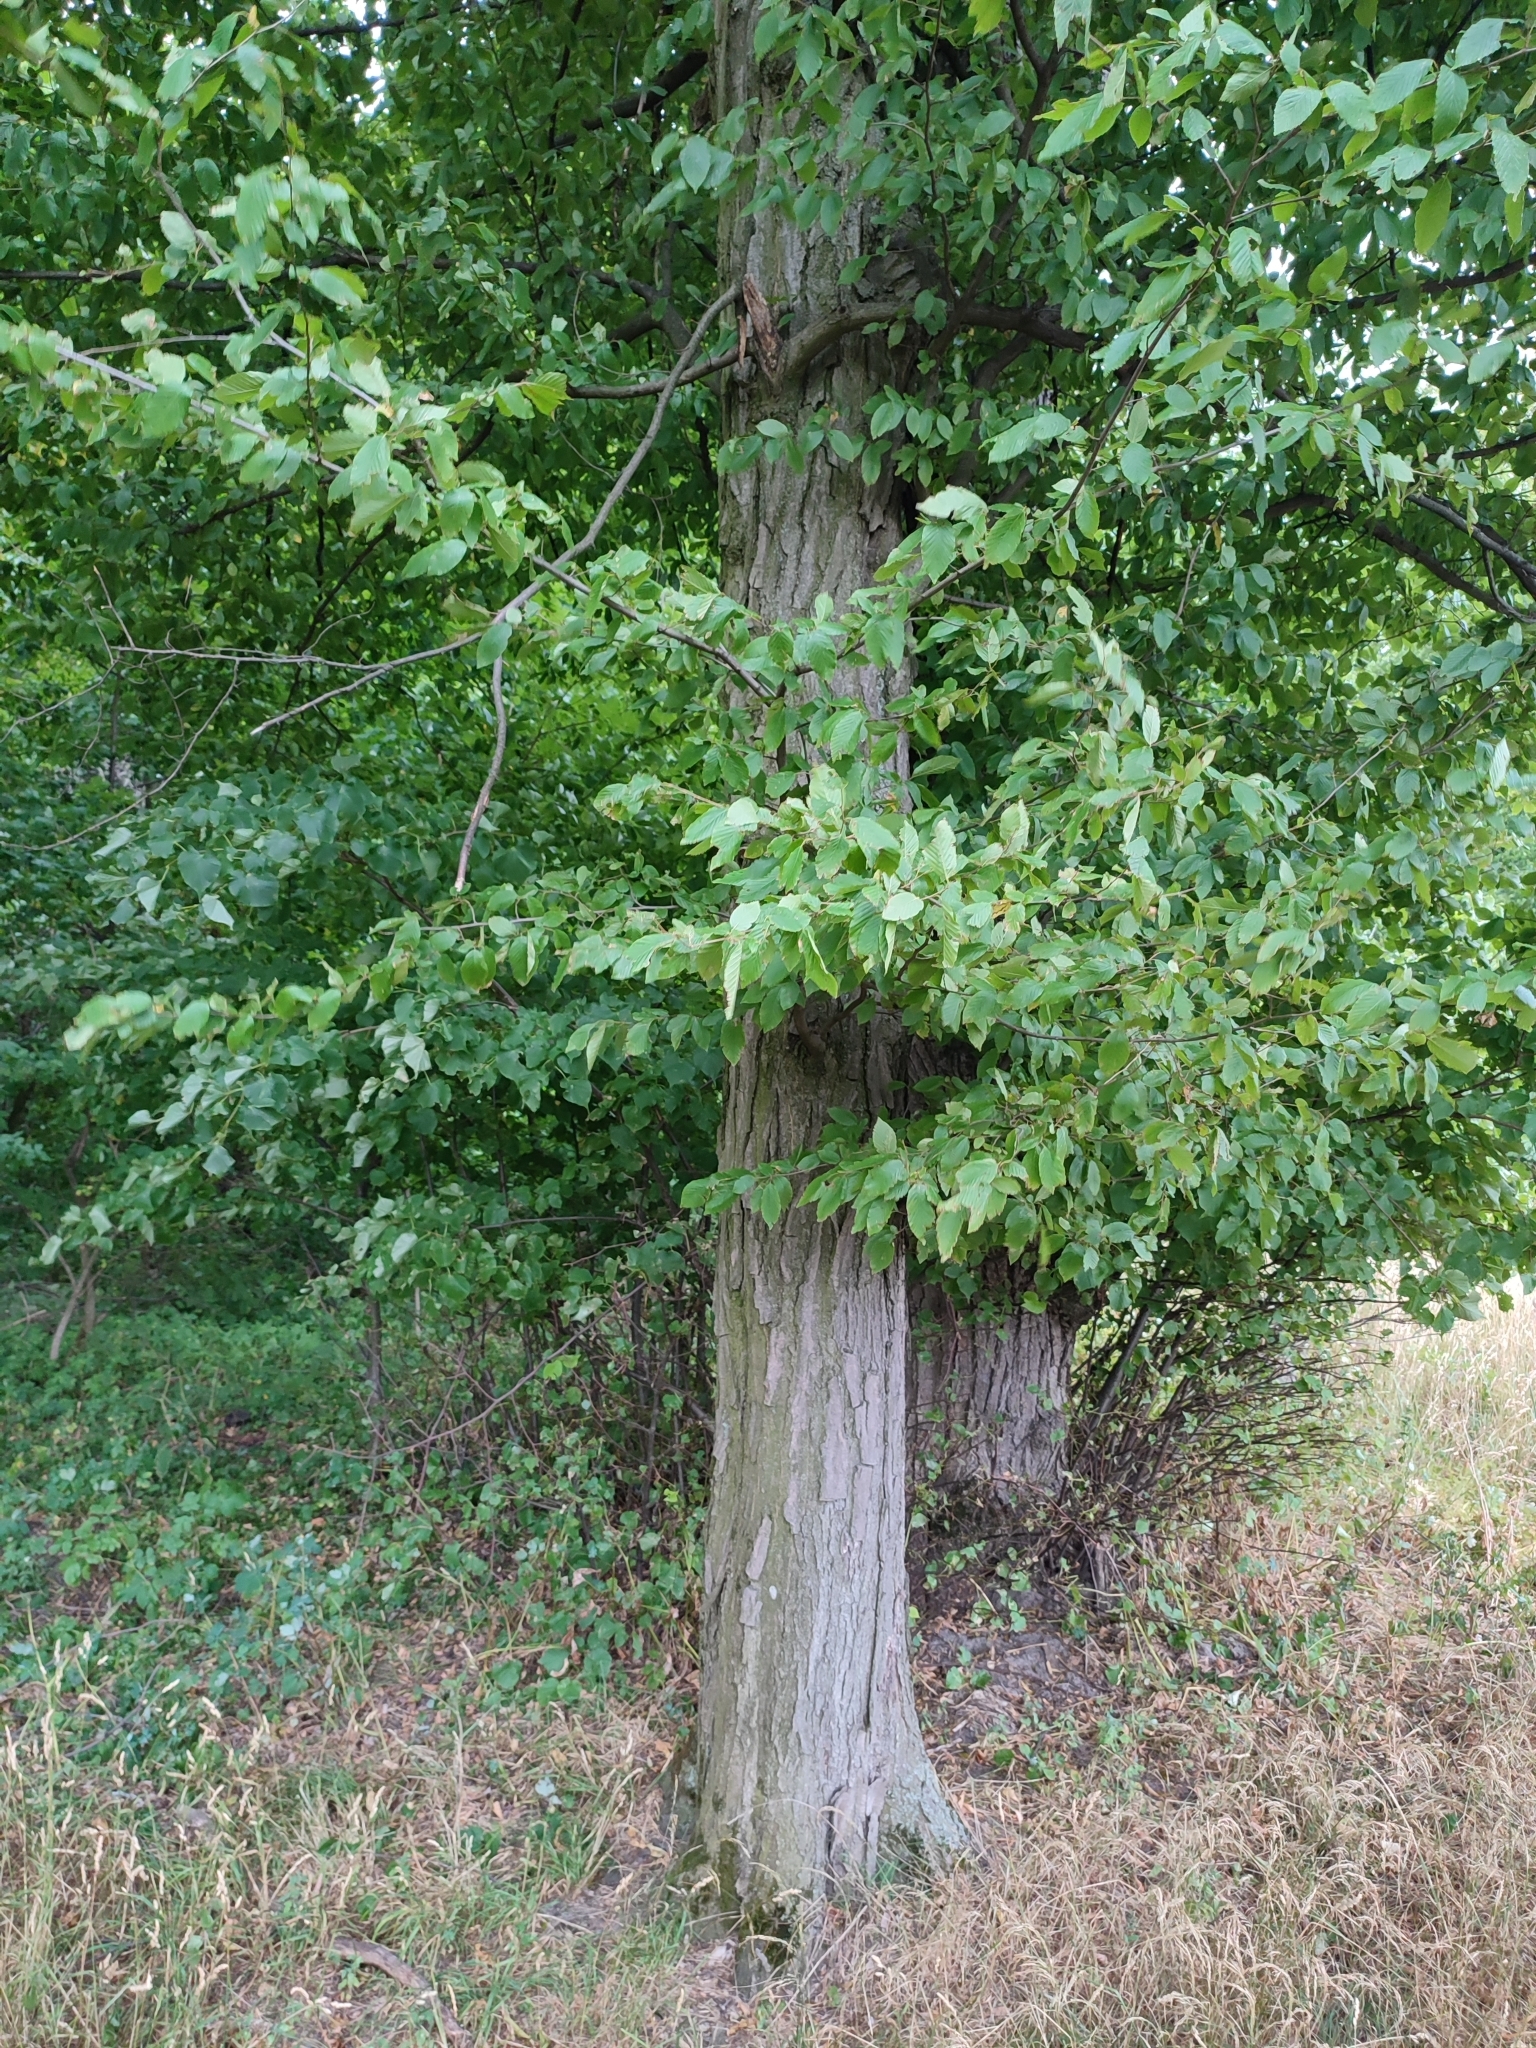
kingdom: Plantae
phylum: Tracheophyta
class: Magnoliopsida
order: Fagales
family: Betulaceae
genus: Carpinus
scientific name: Carpinus betulus
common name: Hornbeam
